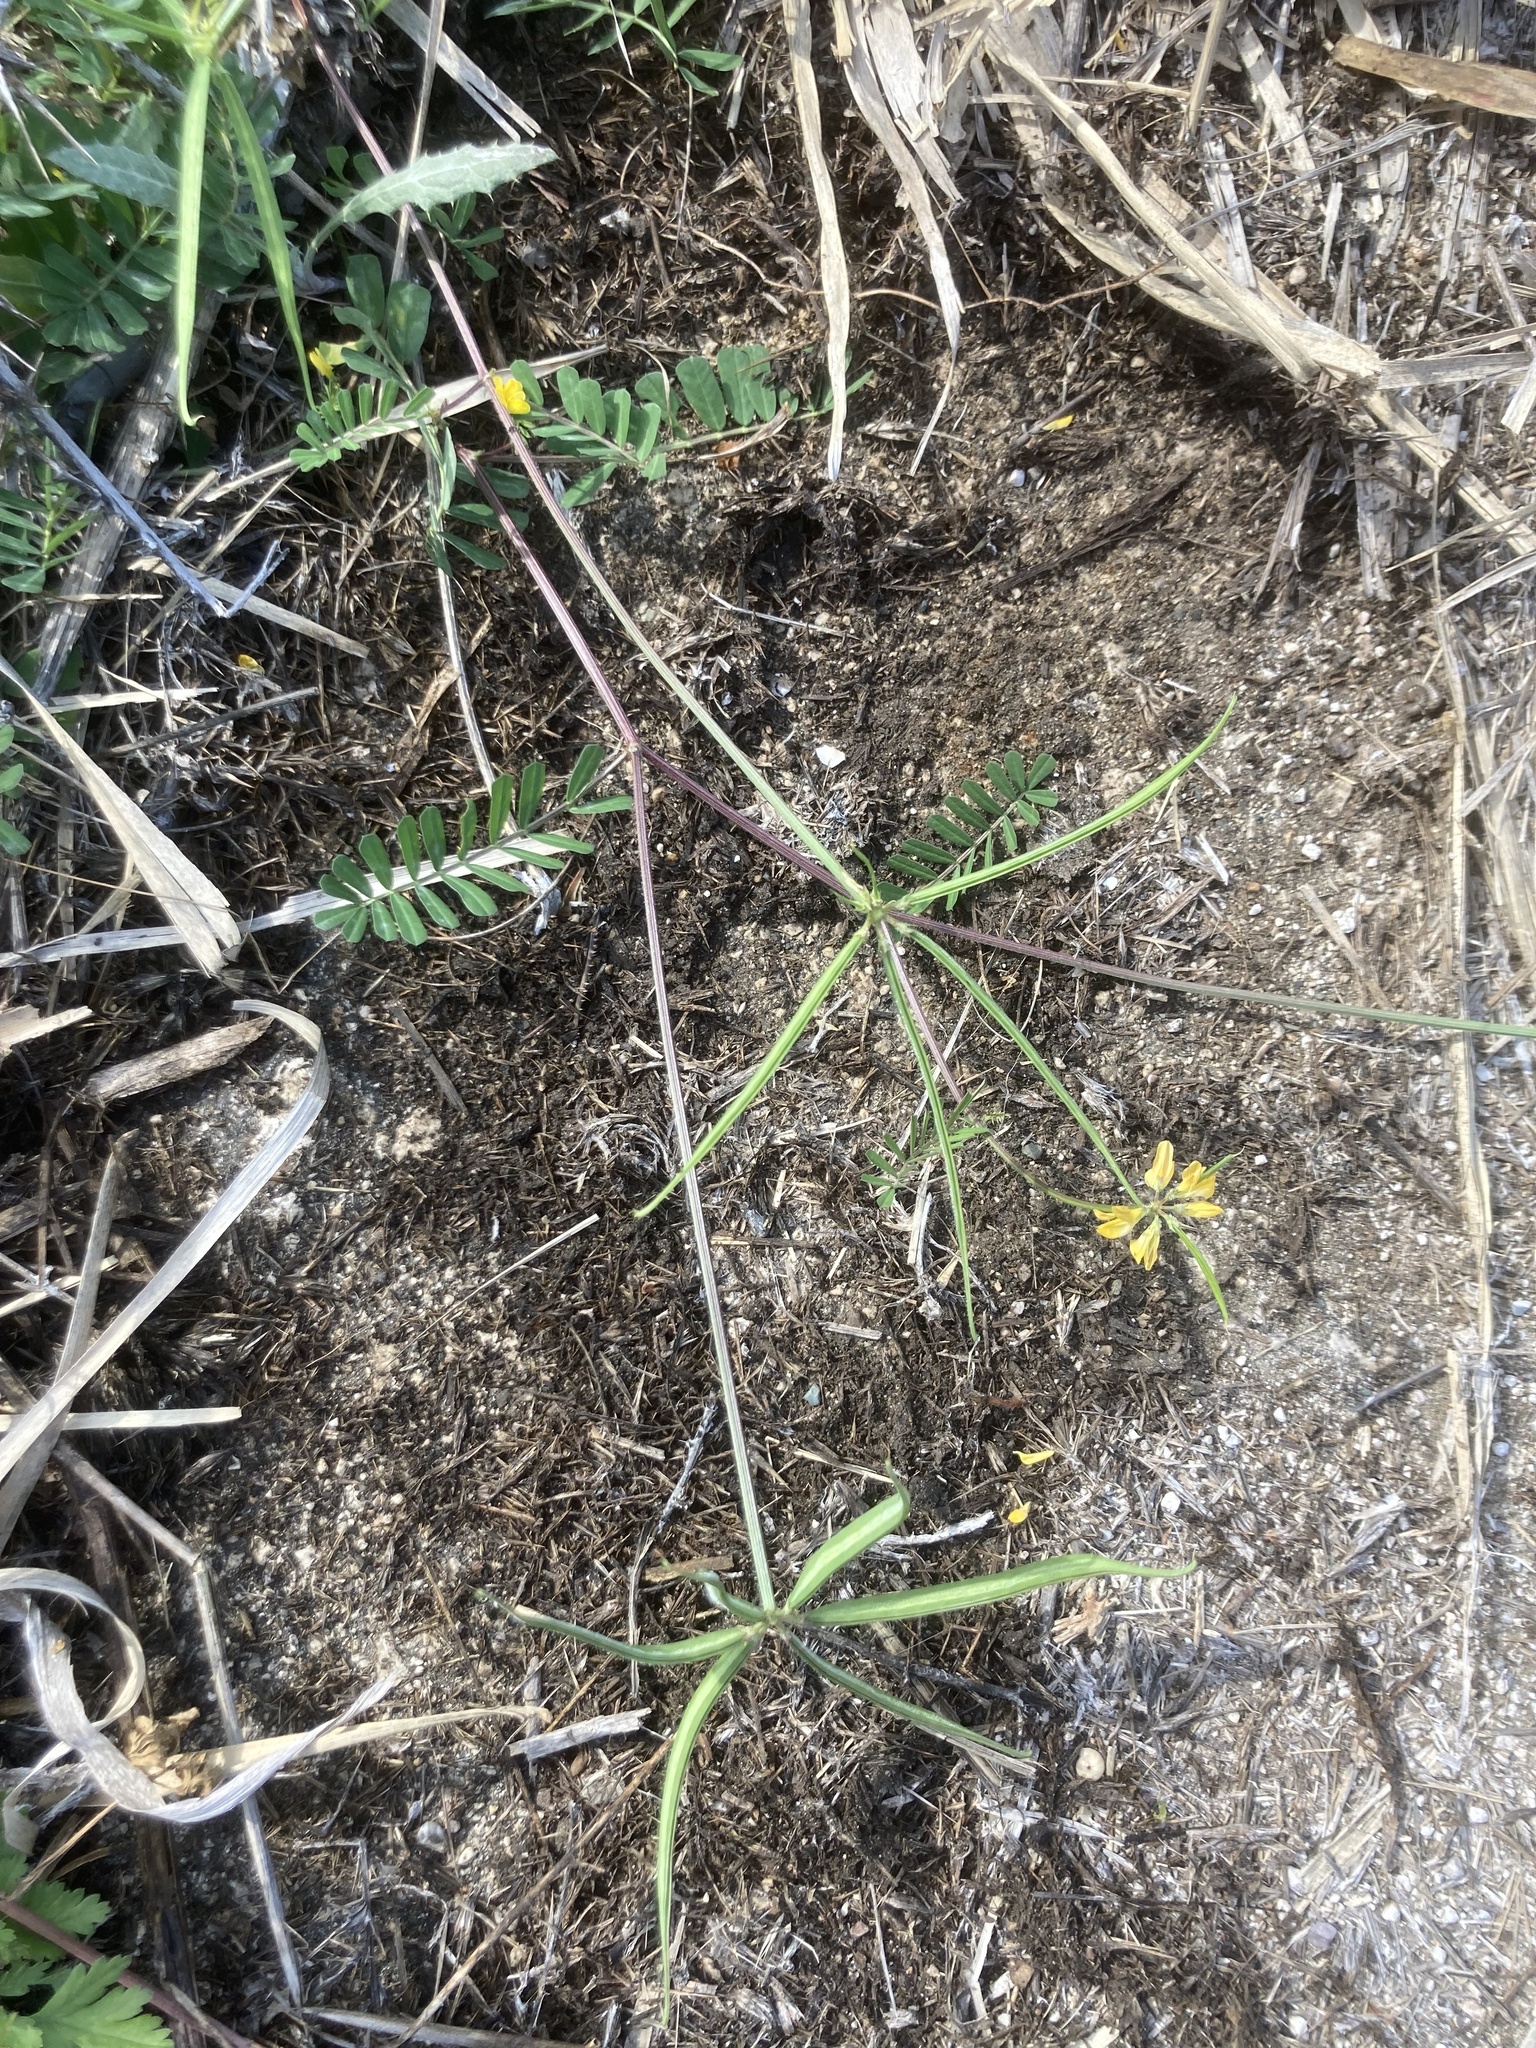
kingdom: Plantae
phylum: Tracheophyta
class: Magnoliopsida
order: Fabales
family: Fabaceae
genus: Coronilla
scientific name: Coronilla securidaca
